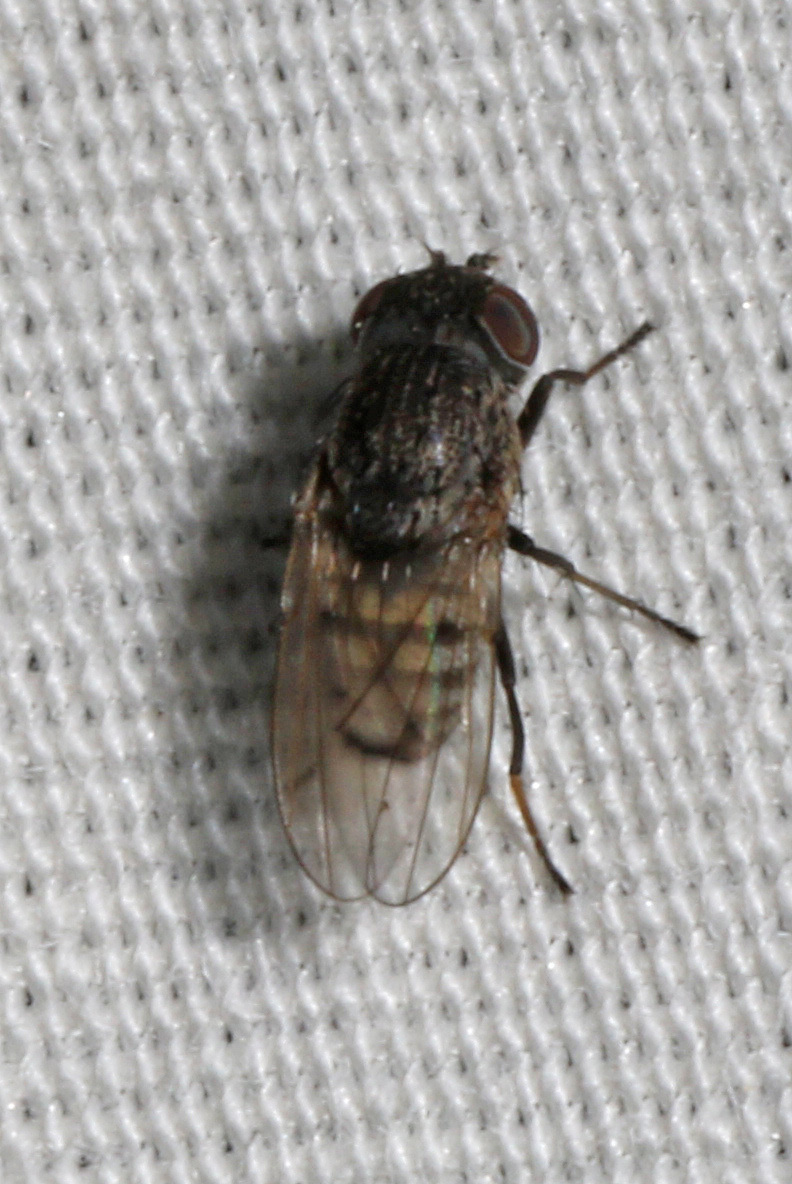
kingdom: Animalia
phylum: Arthropoda
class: Insecta
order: Diptera
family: Ephydridae
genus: Paralimna
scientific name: Paralimna punctipennis
